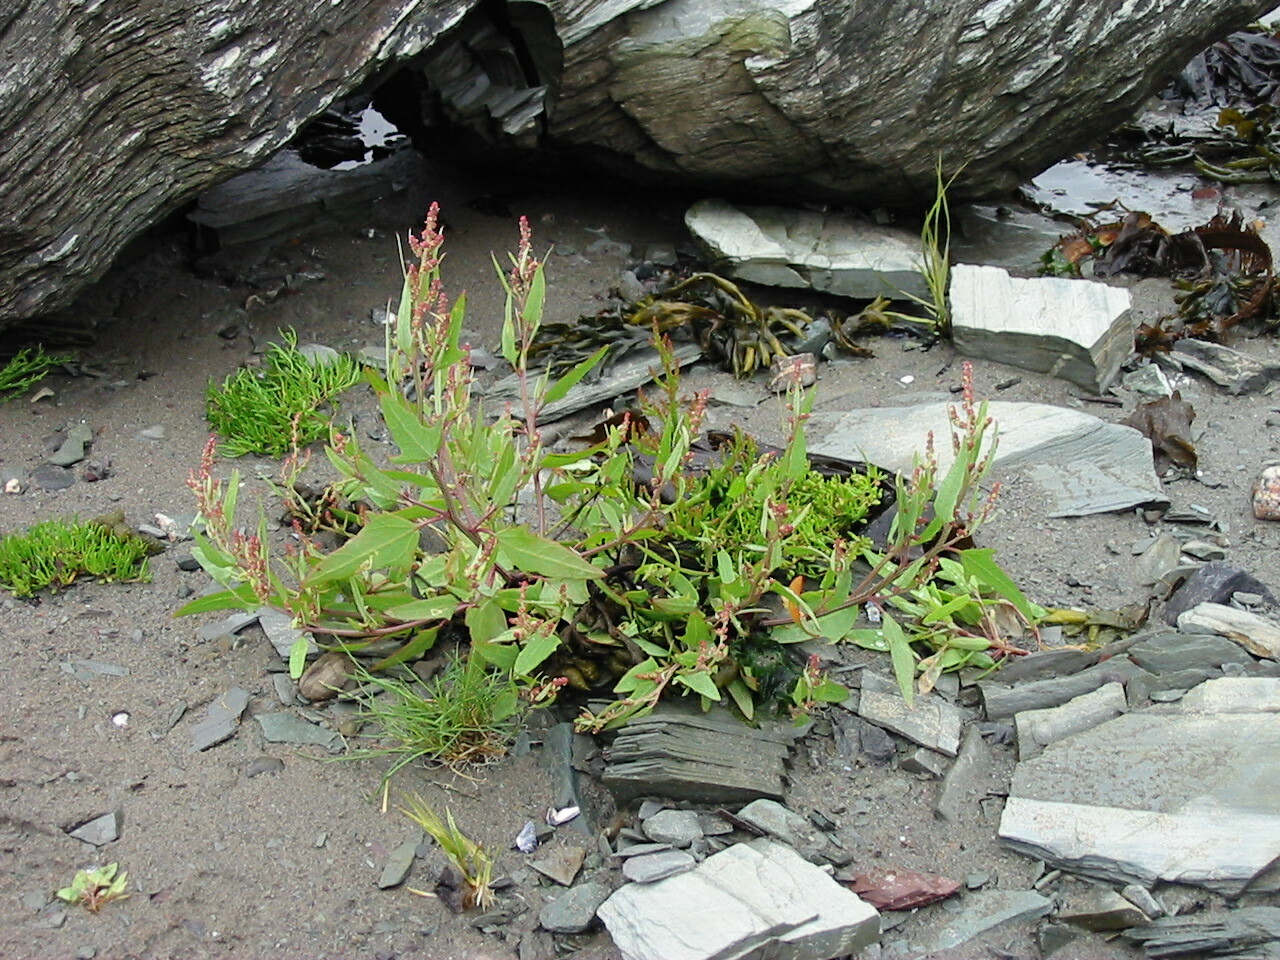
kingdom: Plantae
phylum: Tracheophyta
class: Magnoliopsida
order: Caryophyllales
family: Amaranthaceae
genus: Atriplex
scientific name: Atriplex prostrata
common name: Spear-leaved orache
